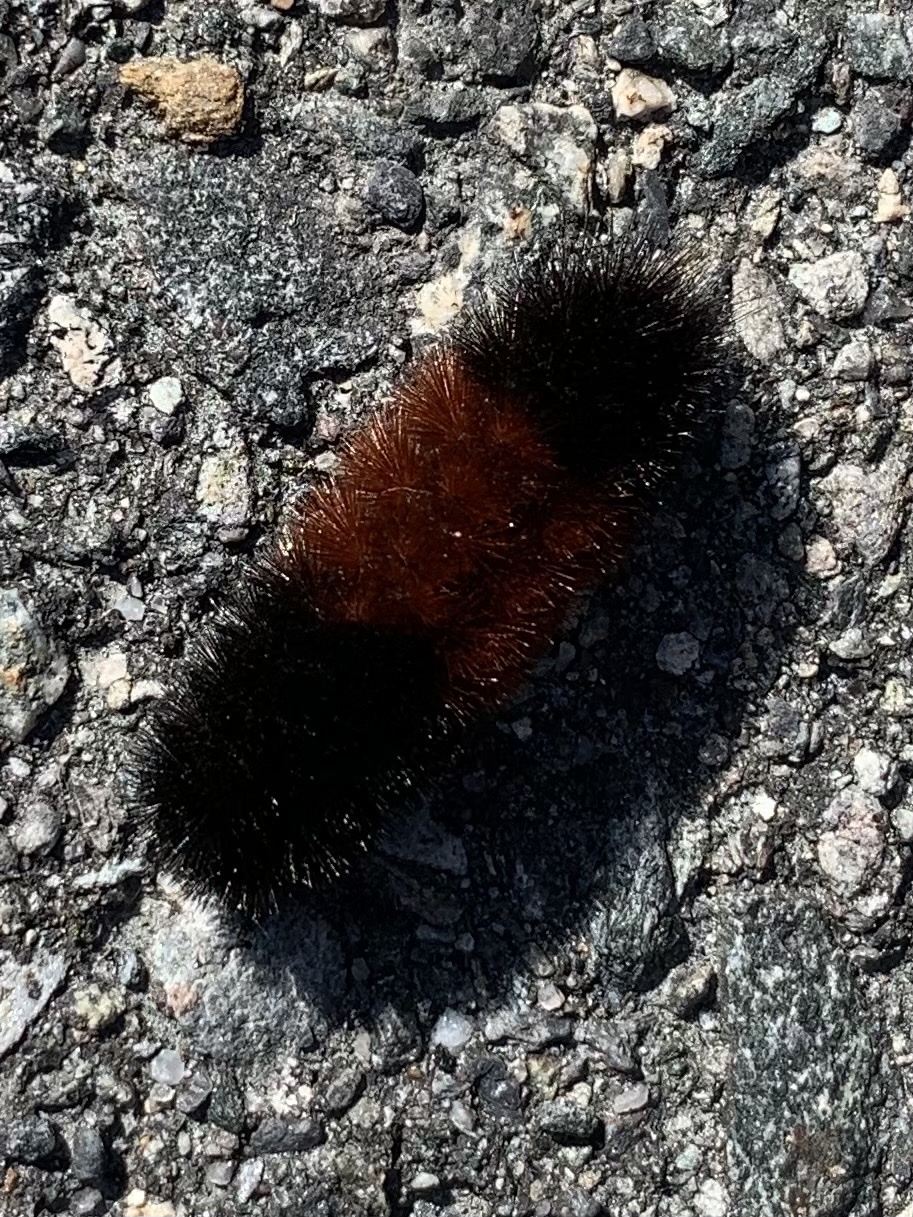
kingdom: Animalia
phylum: Arthropoda
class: Insecta
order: Lepidoptera
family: Erebidae
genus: Pyrrharctia
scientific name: Pyrrharctia isabella
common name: Isabella tiger moth
